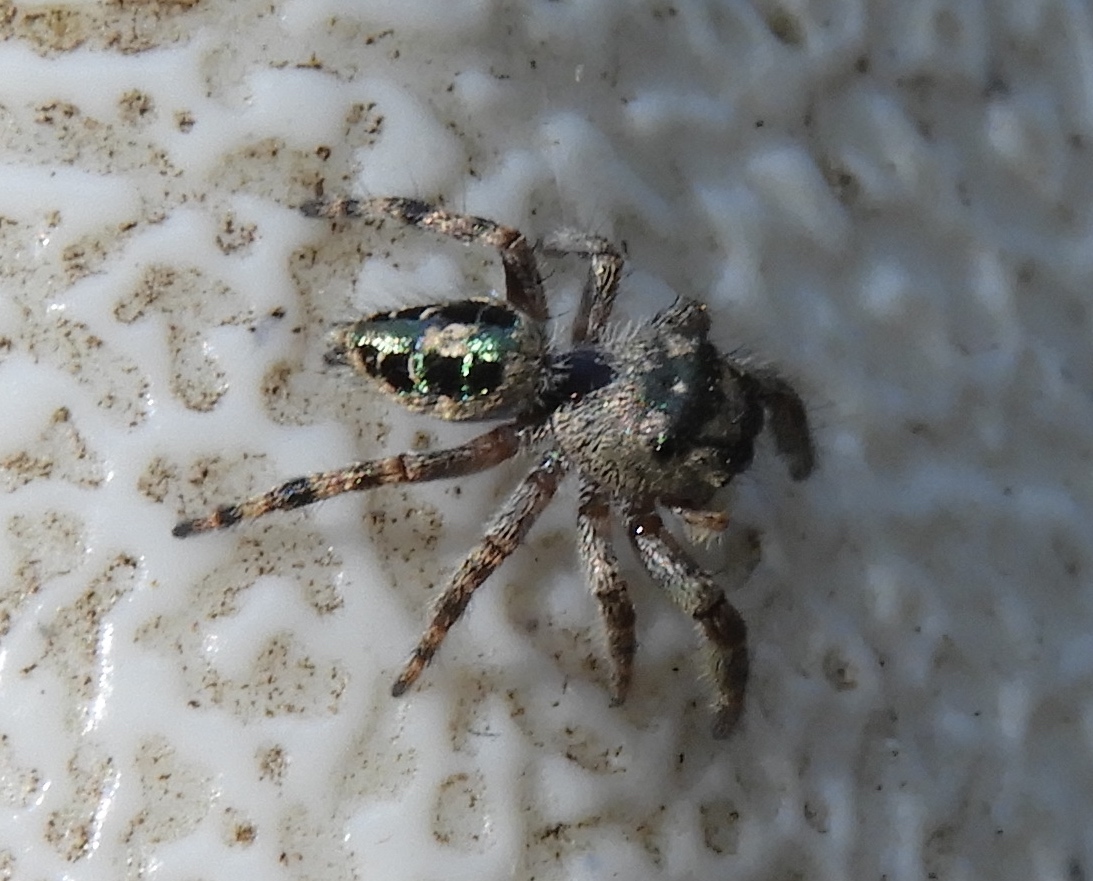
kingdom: Animalia
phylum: Arthropoda
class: Arachnida
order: Araneae
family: Salticidae
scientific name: Salticidae
